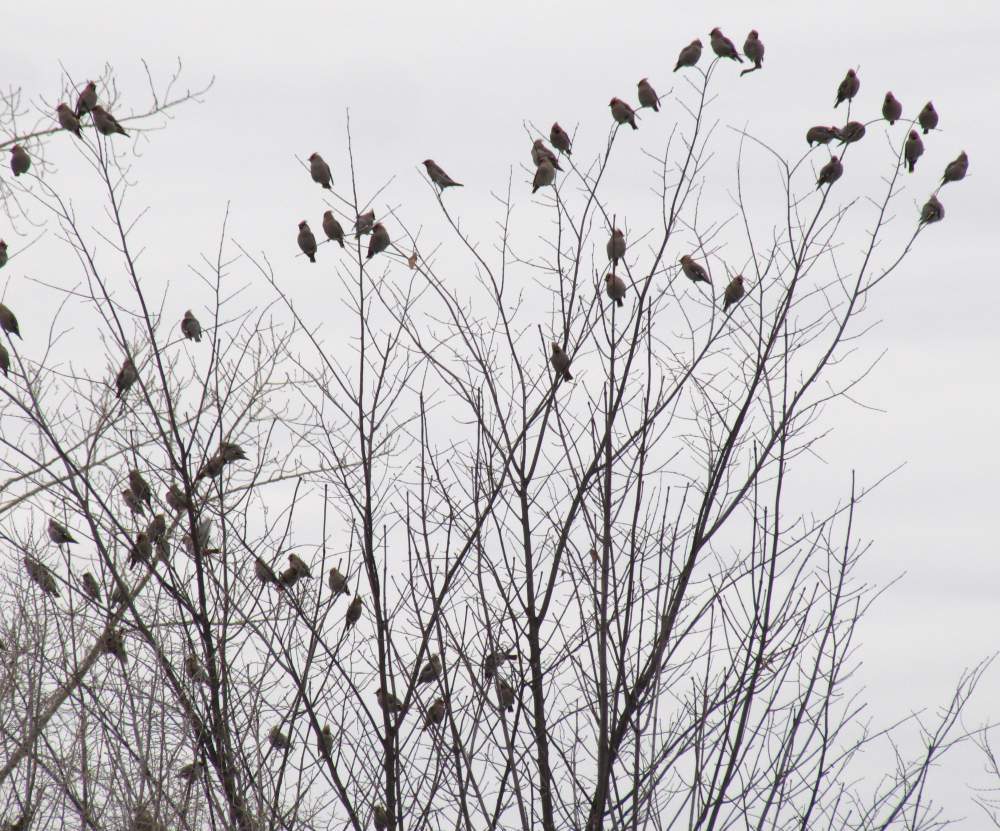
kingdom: Animalia
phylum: Chordata
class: Aves
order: Passeriformes
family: Bombycillidae
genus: Bombycilla
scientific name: Bombycilla garrulus
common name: Bohemian waxwing
